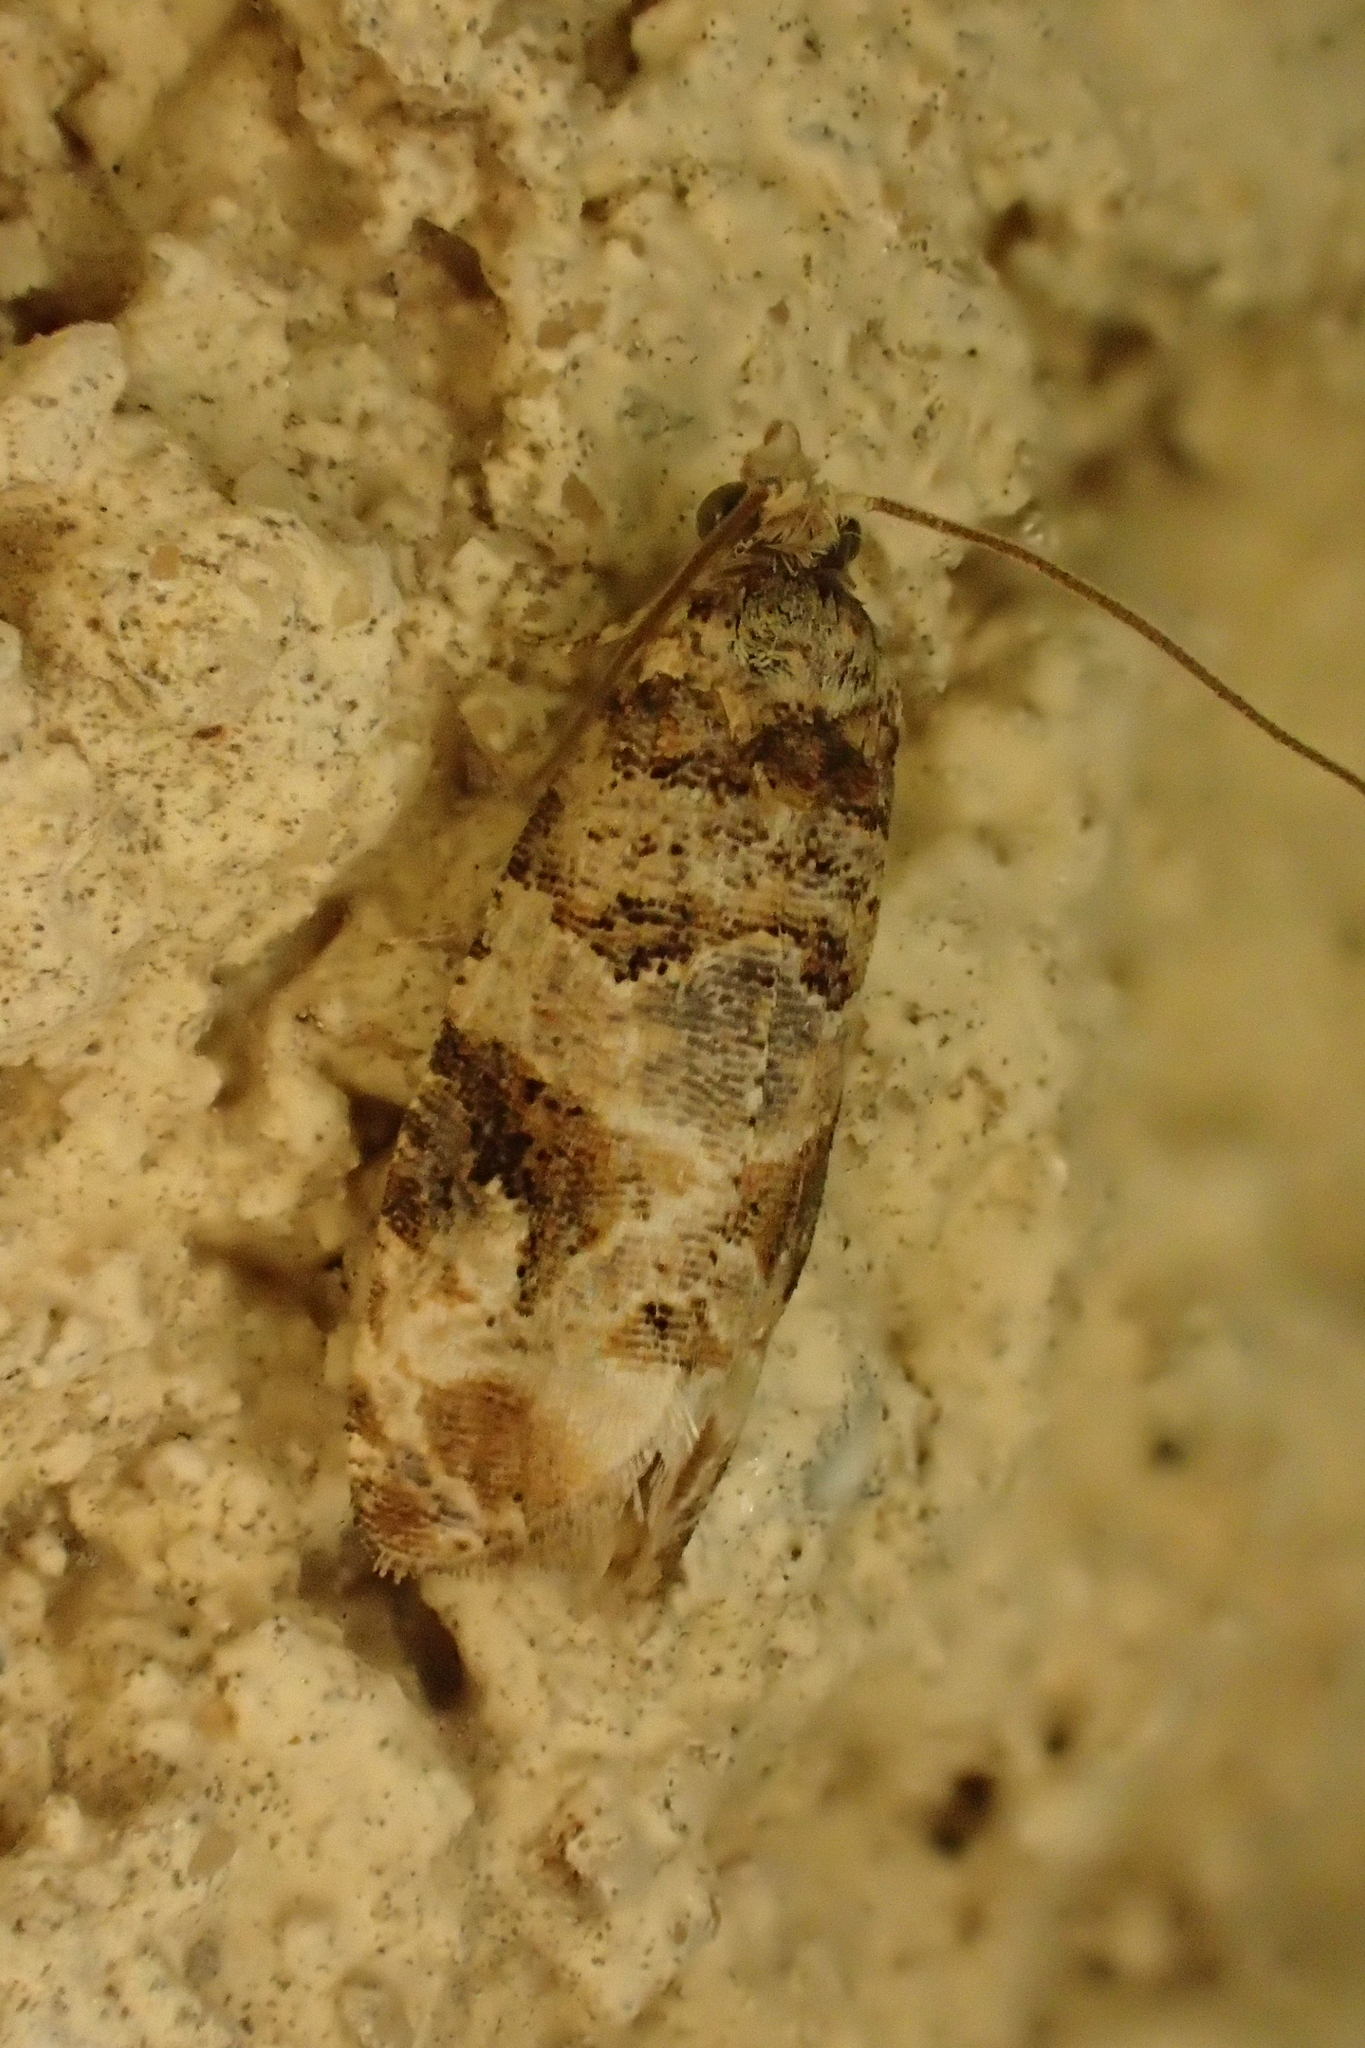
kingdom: Animalia
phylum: Arthropoda
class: Insecta
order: Lepidoptera
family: Tortricidae
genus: Lobesia
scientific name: Lobesia botrana
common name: European vine moth
